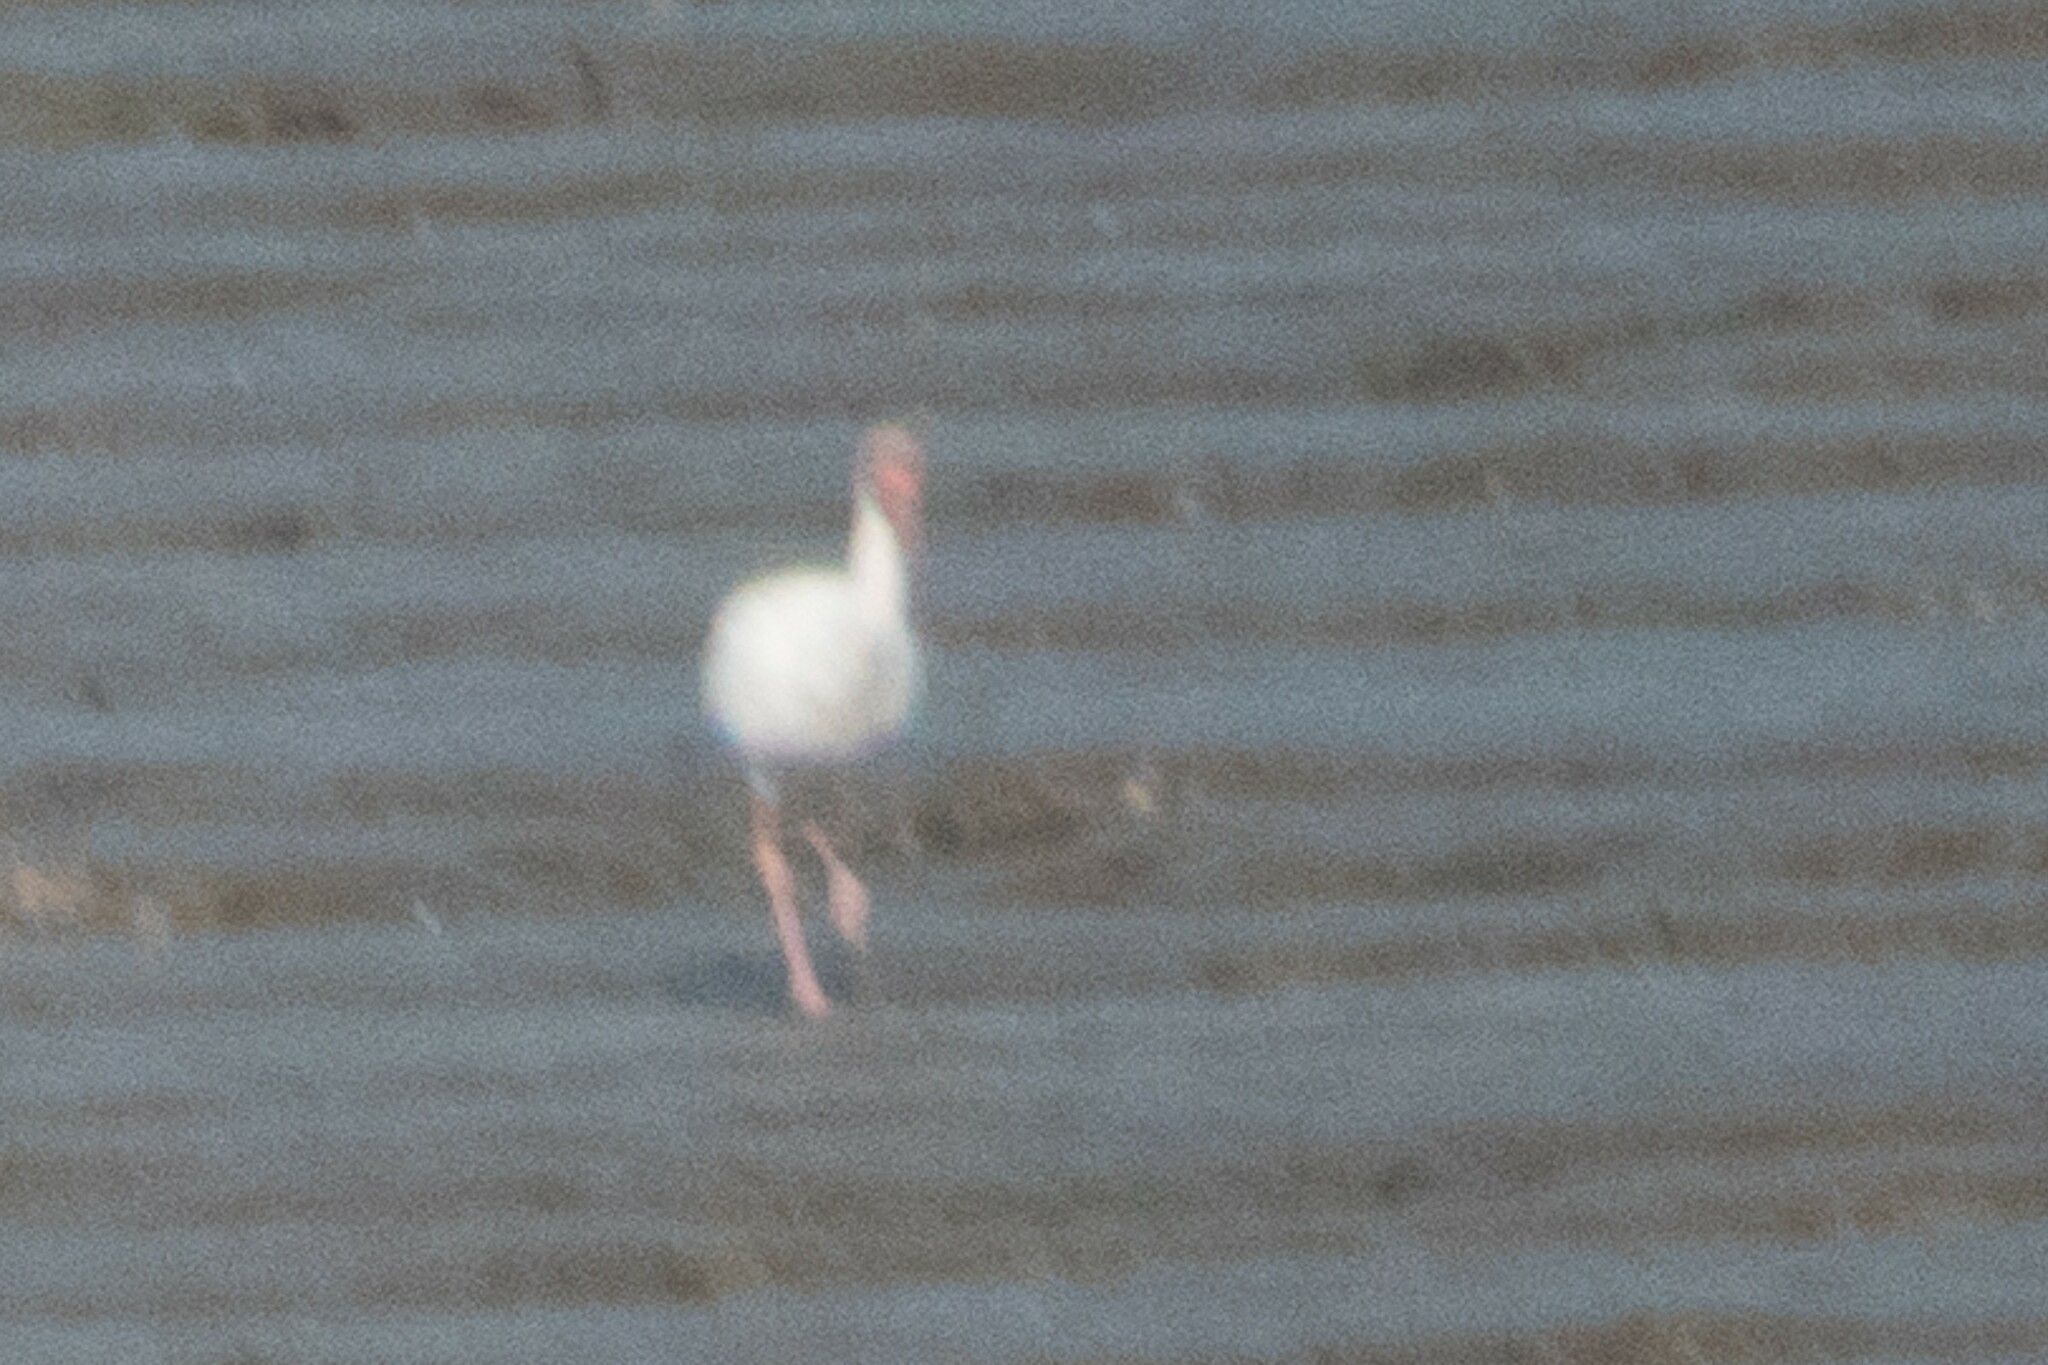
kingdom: Animalia
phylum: Chordata
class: Aves
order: Pelecaniformes
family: Threskiornithidae
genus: Eudocimus
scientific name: Eudocimus albus
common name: White ibis
